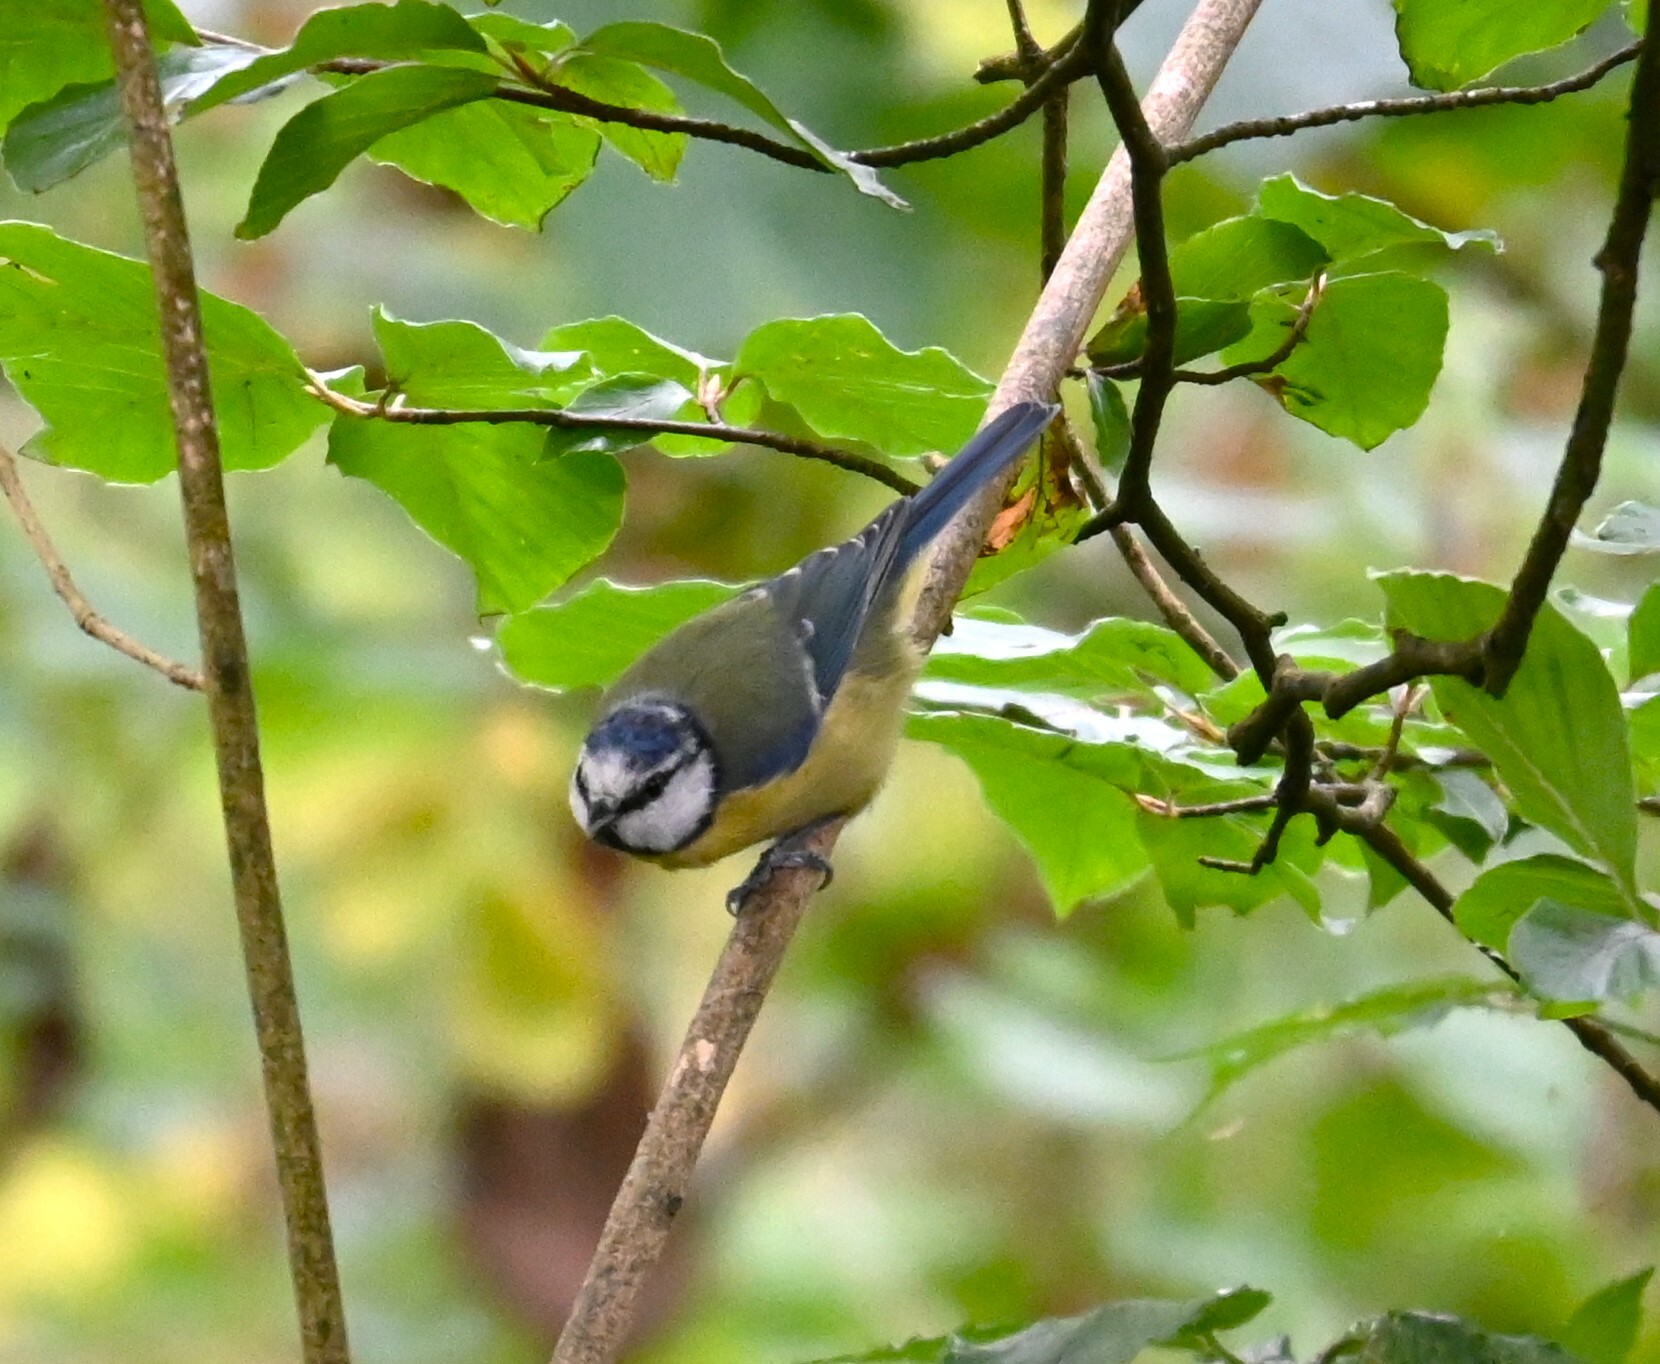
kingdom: Animalia
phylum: Chordata
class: Aves
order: Passeriformes
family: Paridae
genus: Cyanistes
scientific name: Cyanistes caeruleus
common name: Eurasian blue tit
